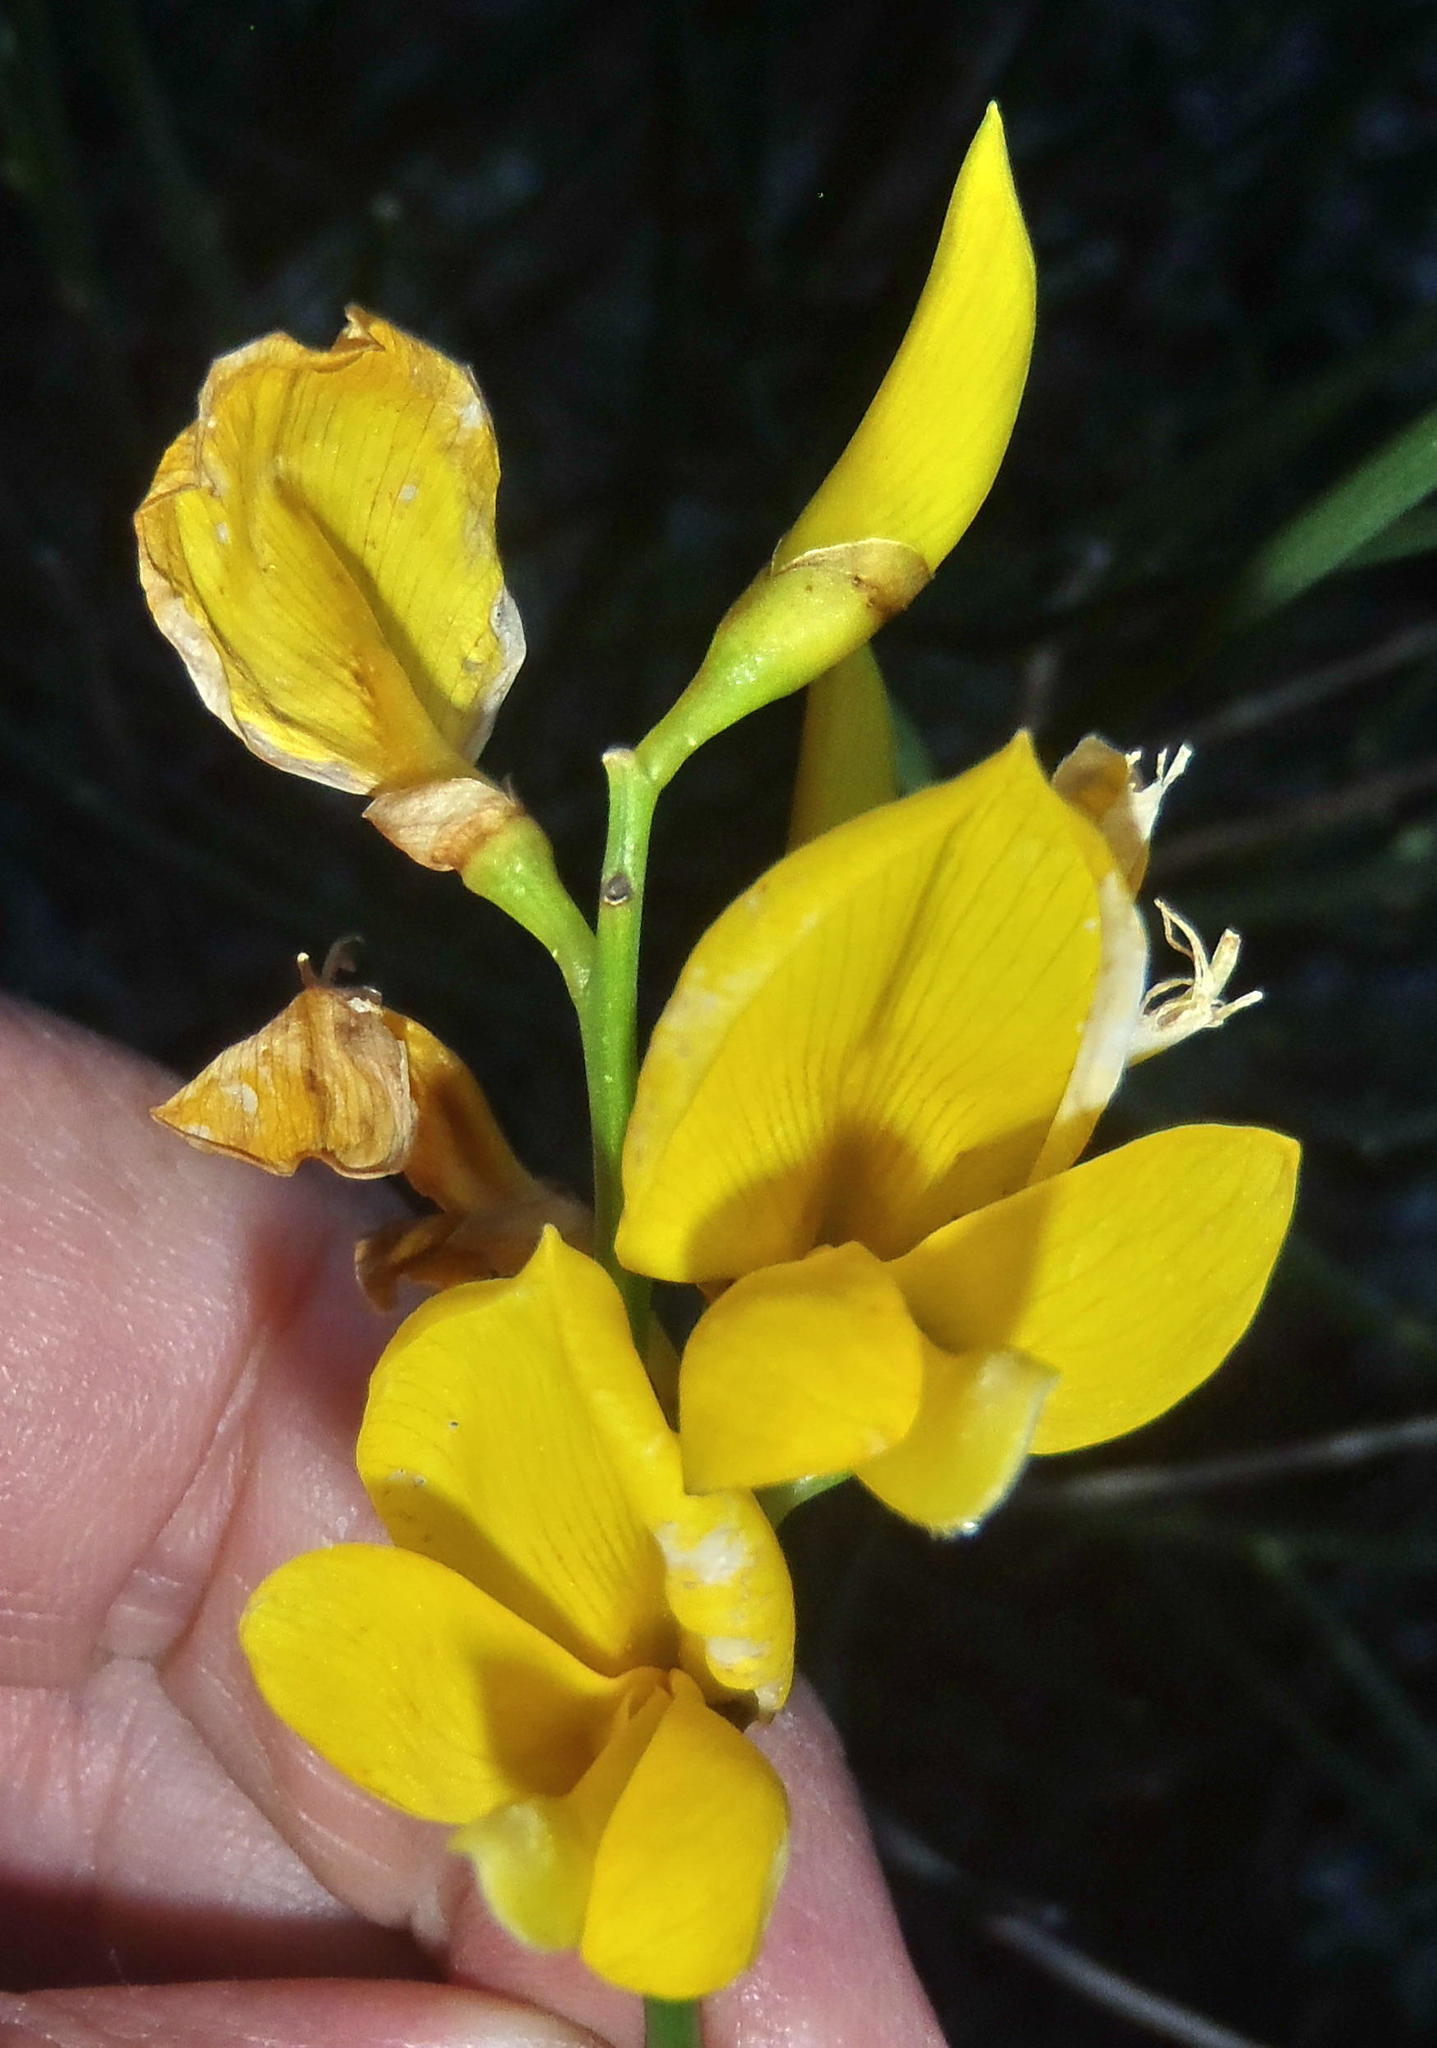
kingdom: Plantae
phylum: Tracheophyta
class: Magnoliopsida
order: Fabales
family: Fabaceae
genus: Spartium
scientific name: Spartium junceum
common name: Spanish broom
